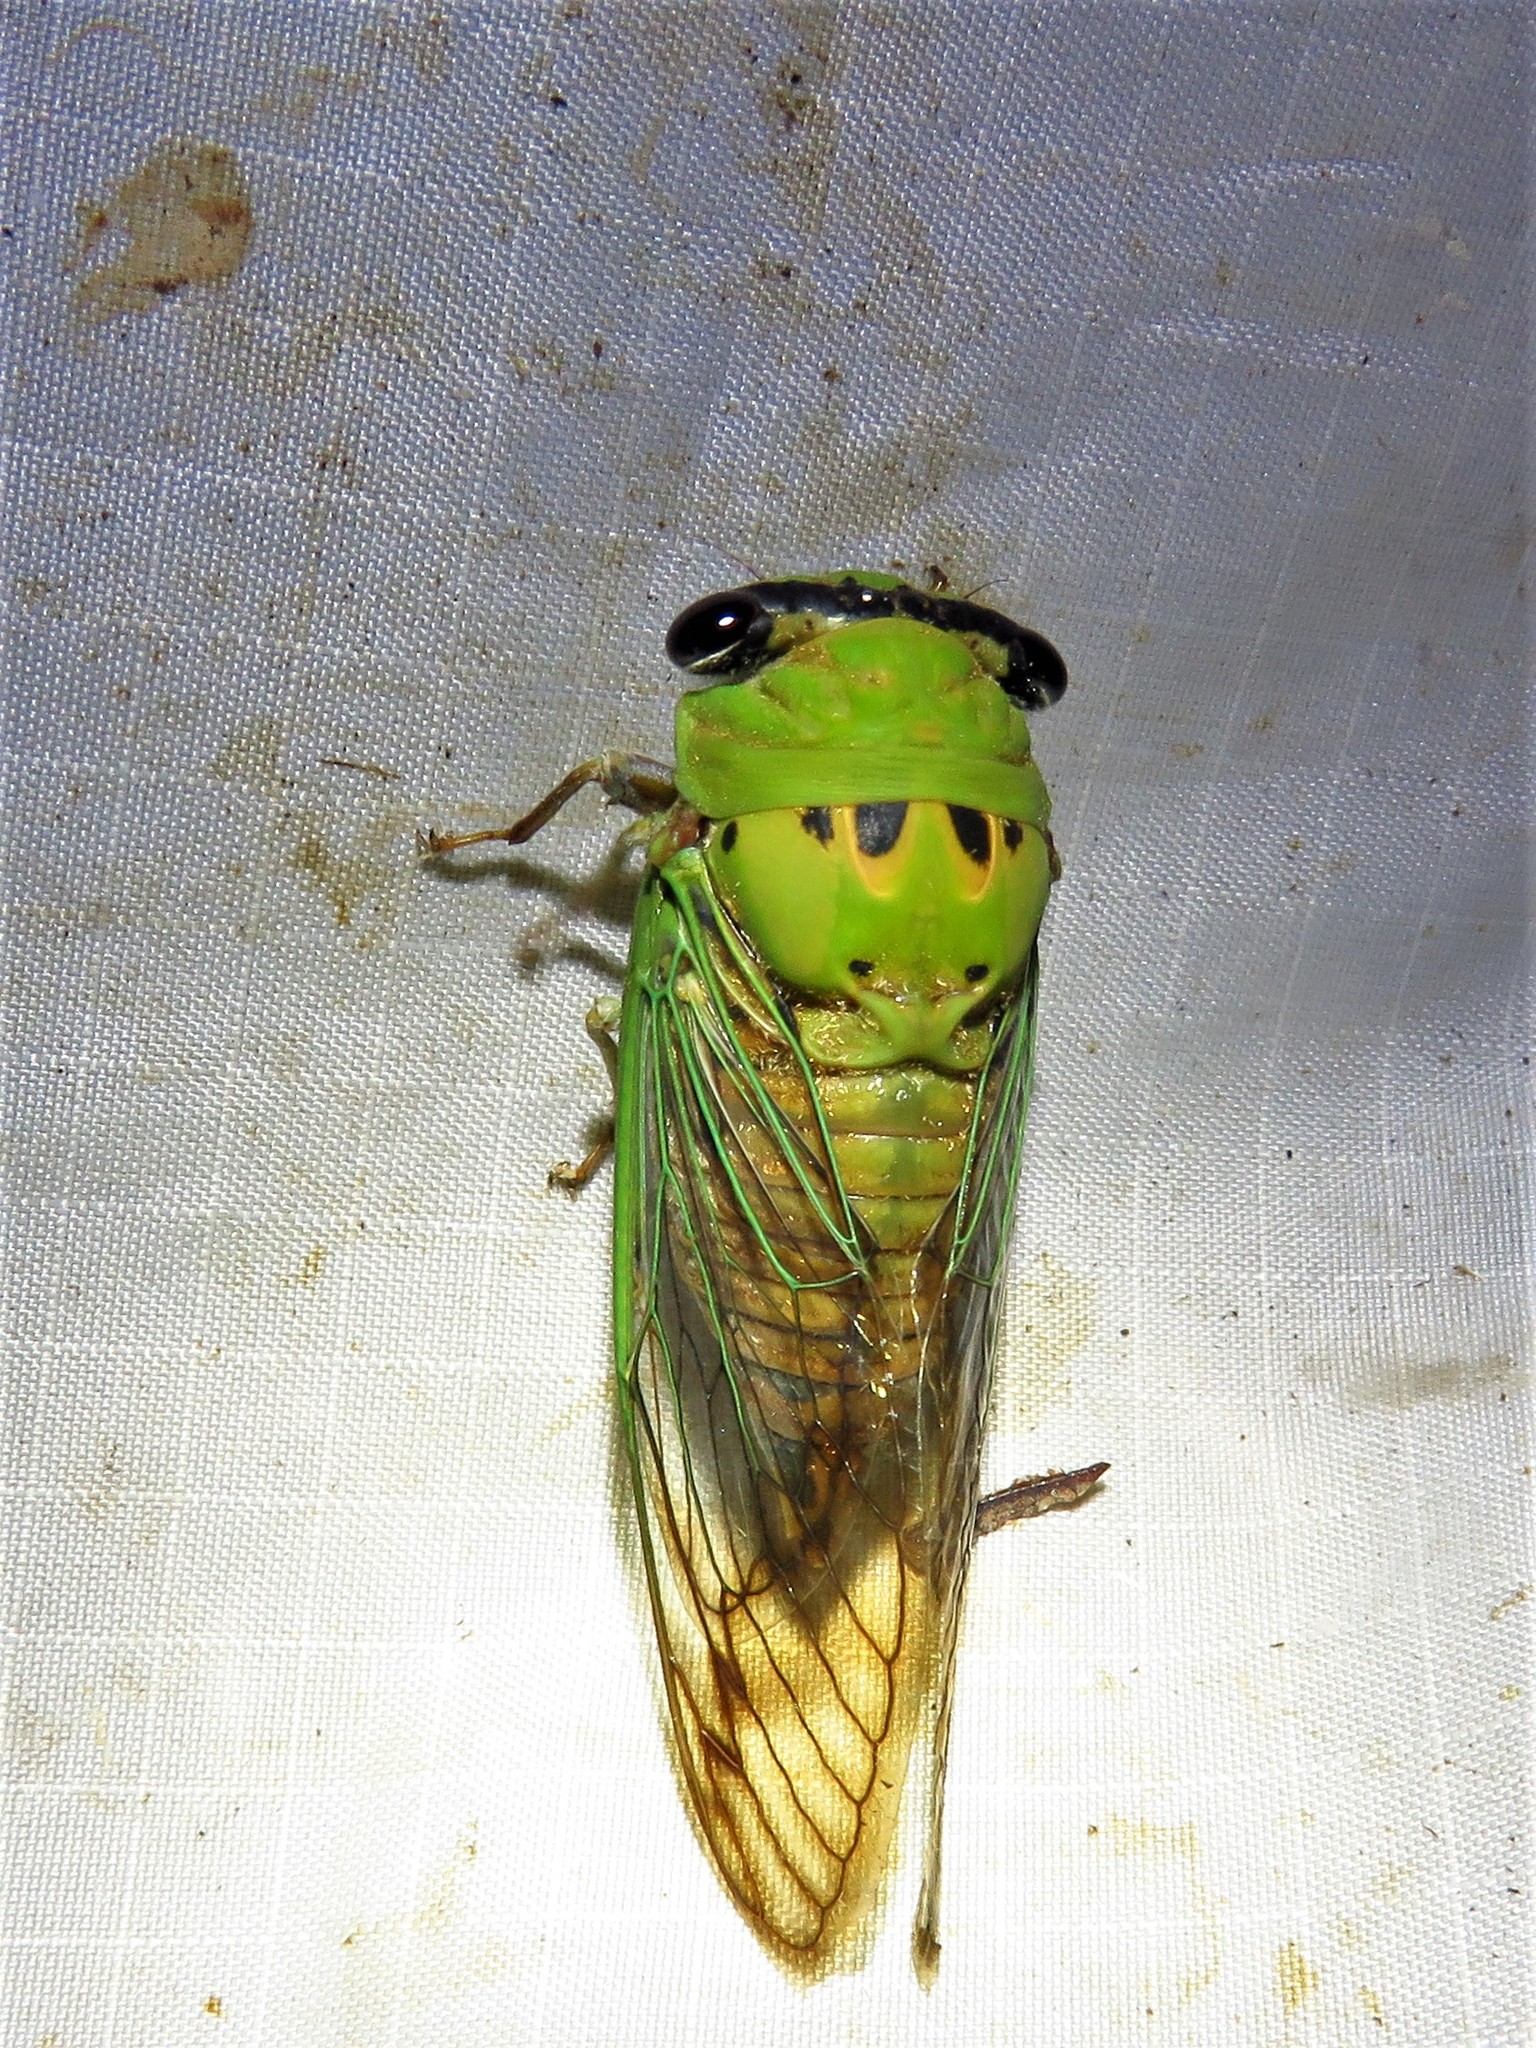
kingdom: Animalia
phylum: Arthropoda
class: Insecta
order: Hemiptera
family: Cicadidae
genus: Neotibicen
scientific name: Neotibicen superbus
